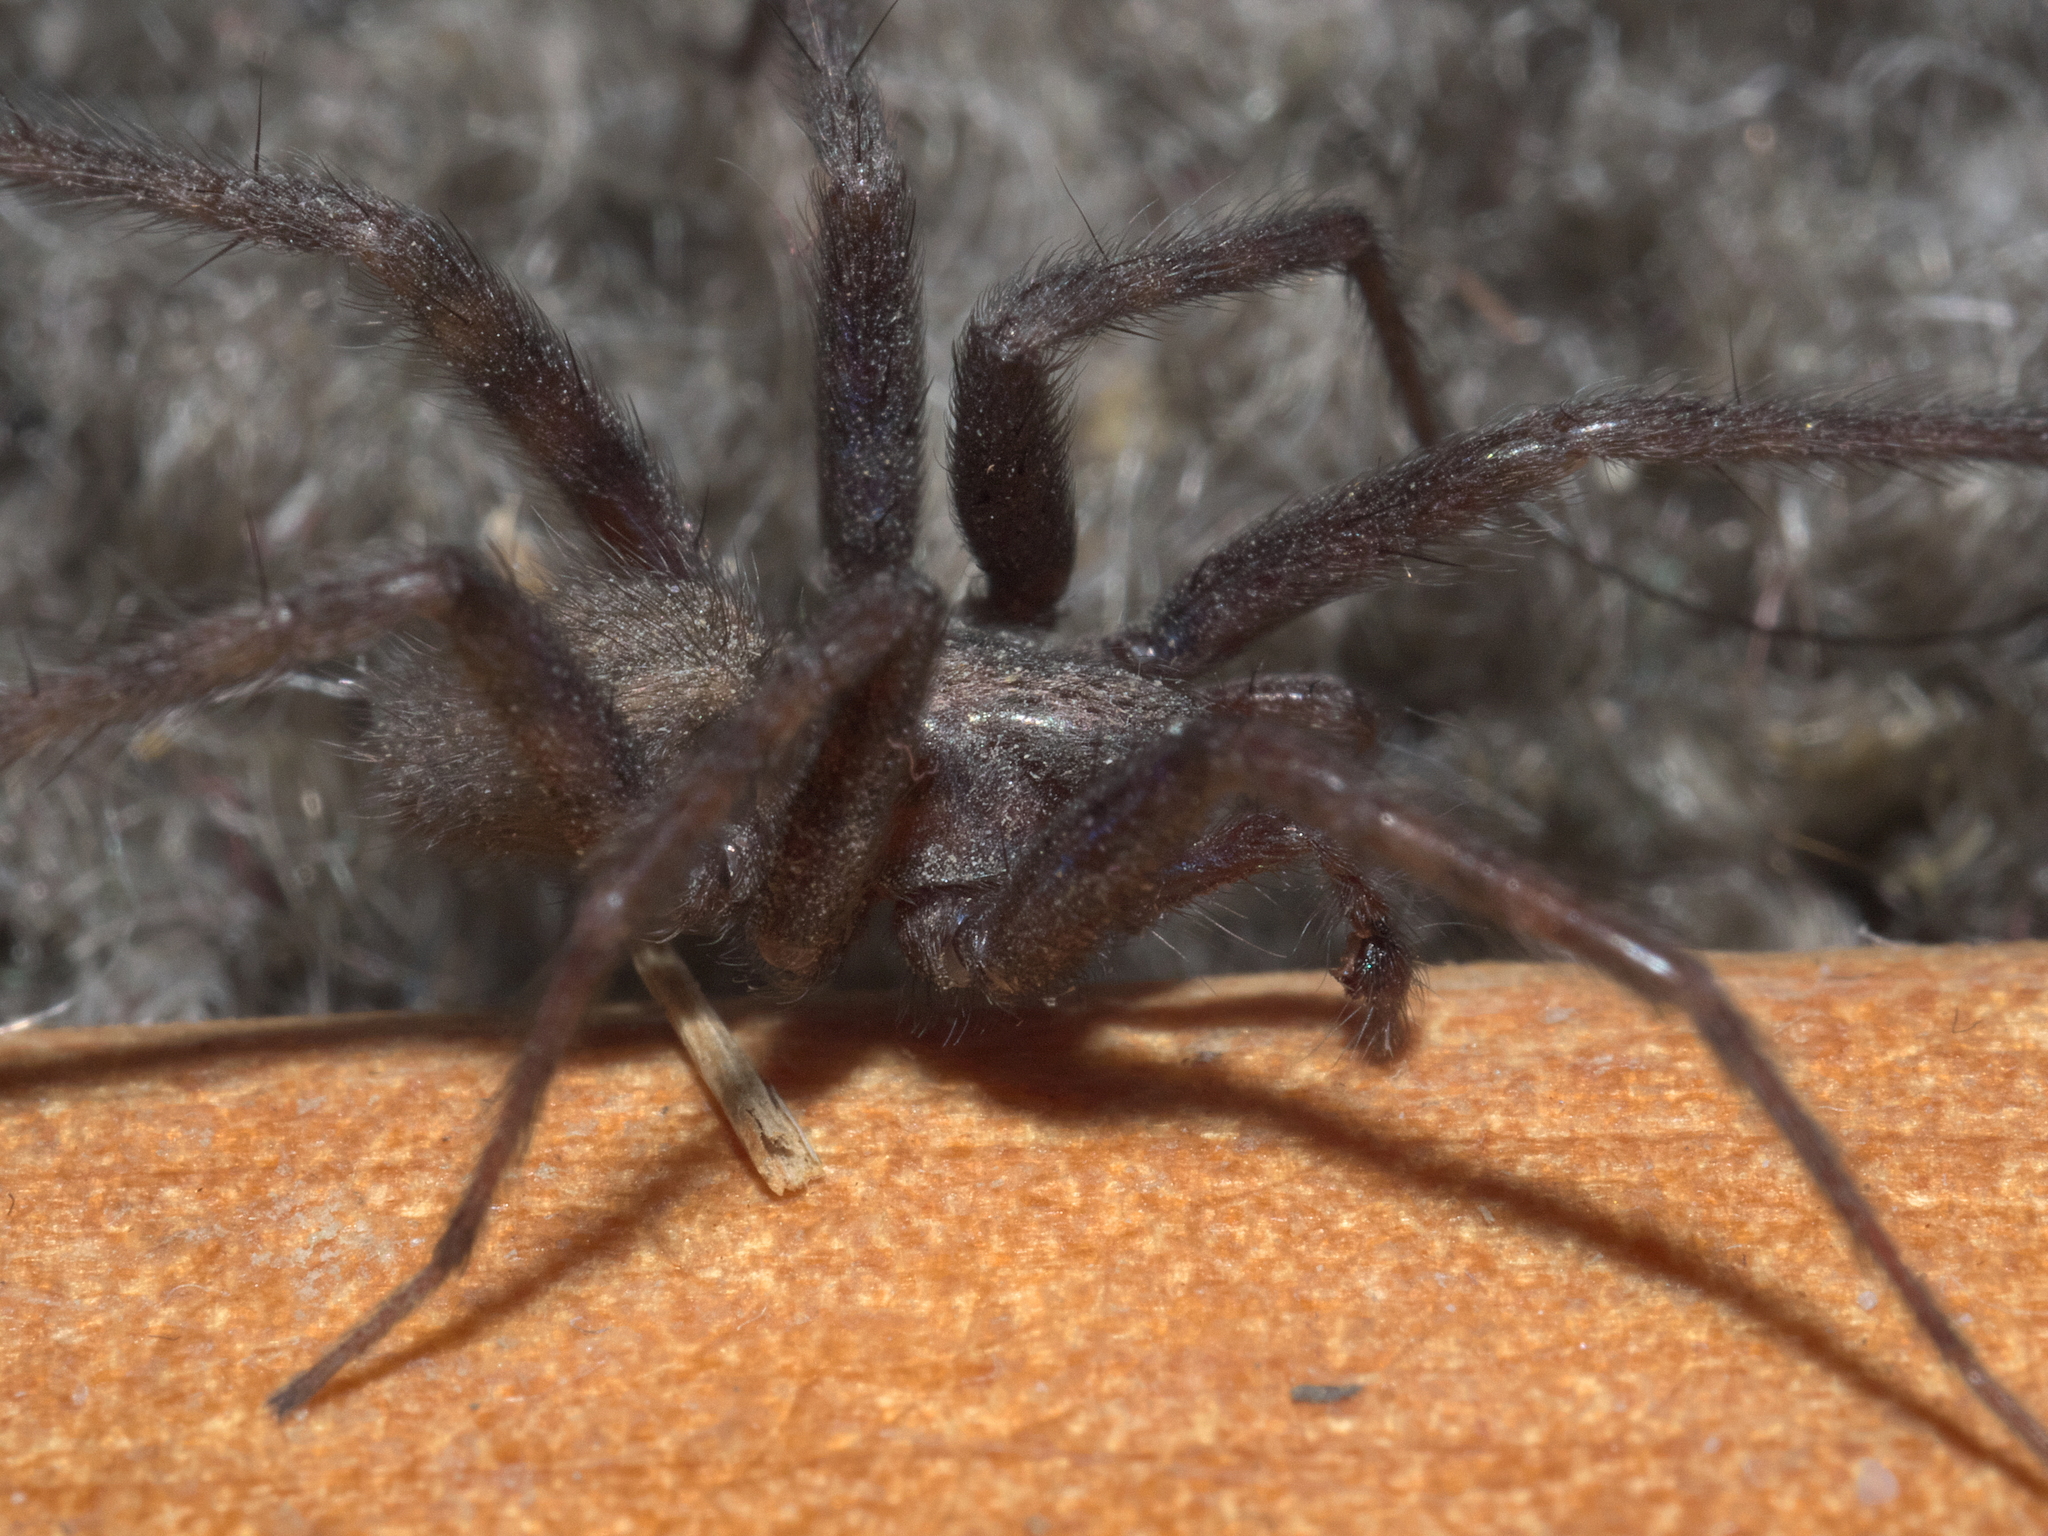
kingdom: Animalia
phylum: Arthropoda
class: Arachnida
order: Araneae
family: Agelenidae
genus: Tegenaria
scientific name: Tegenaria domestica
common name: Barn funnel weaver
